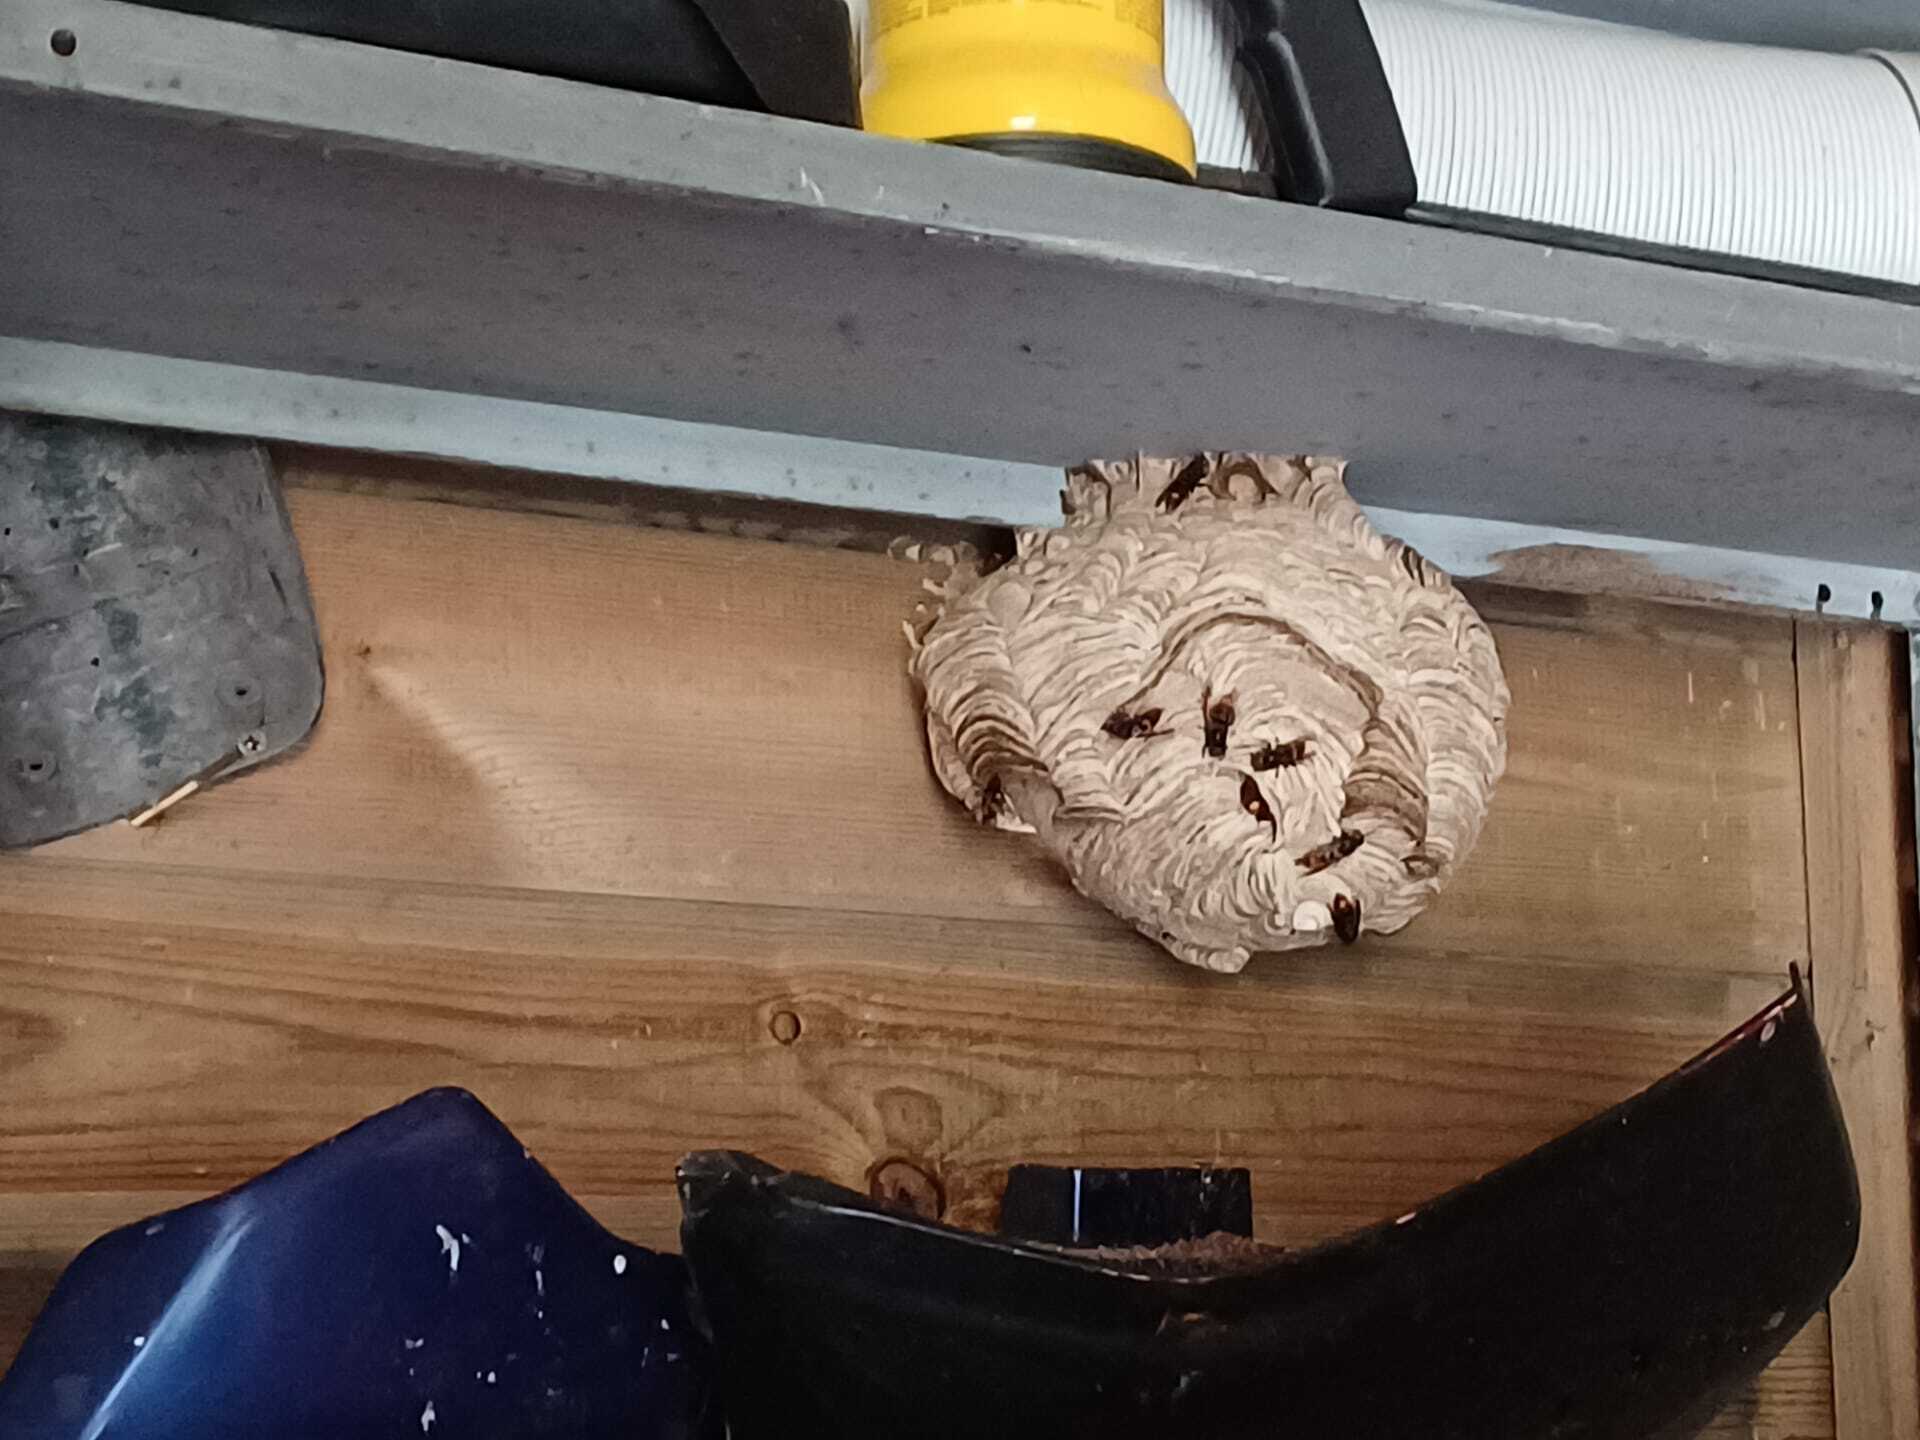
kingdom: Animalia
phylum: Arthropoda
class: Insecta
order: Hymenoptera
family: Vespidae
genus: Vespa
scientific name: Vespa velutina
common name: Asian hornet
